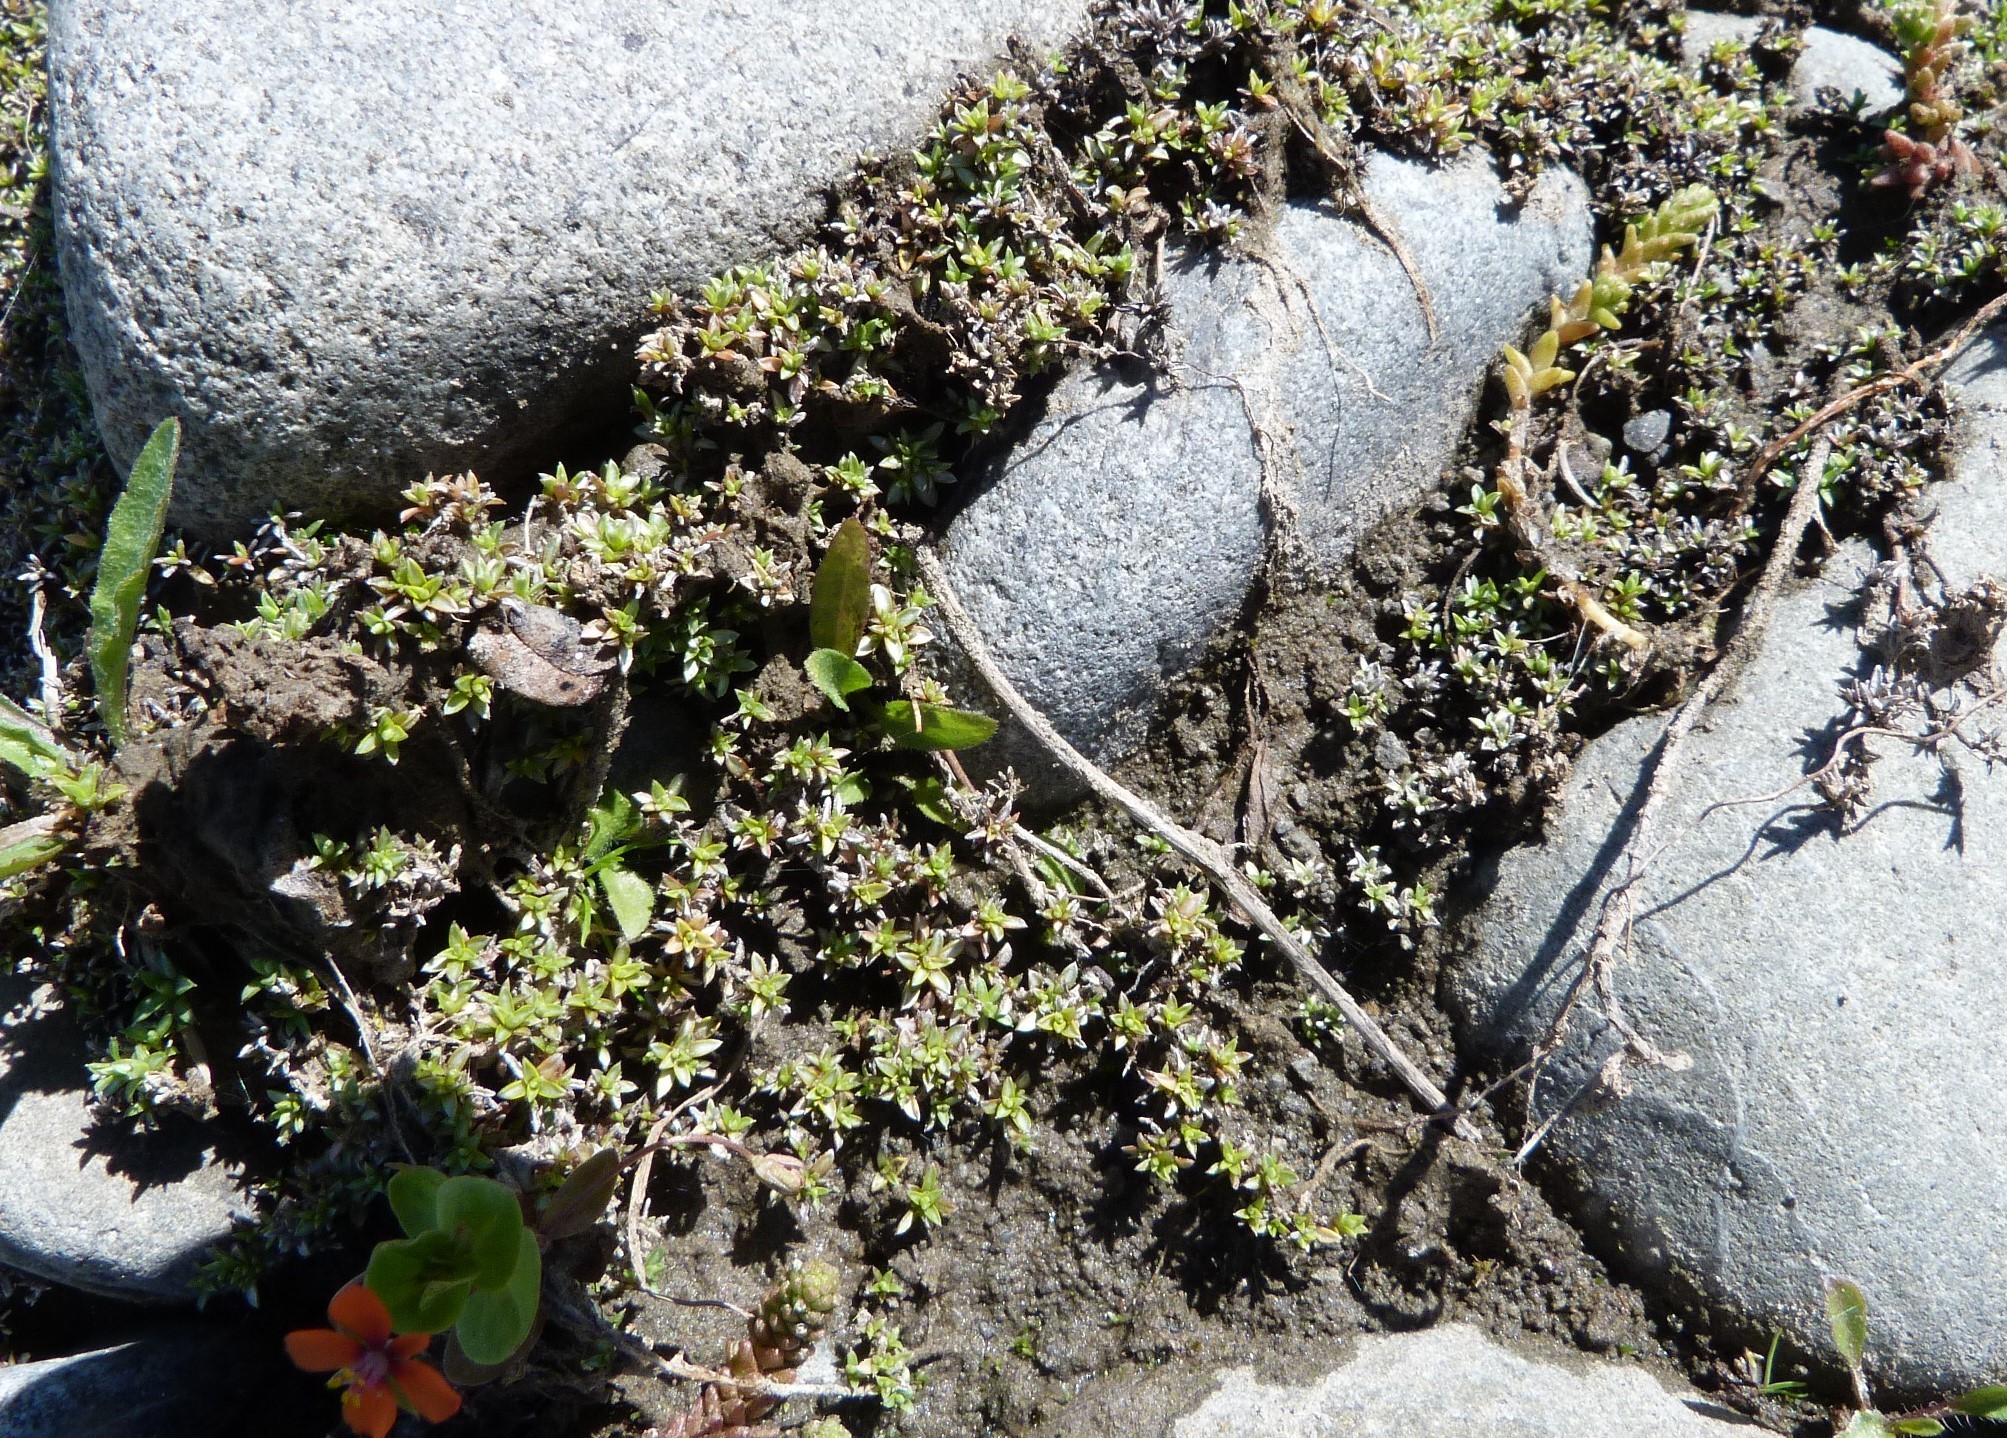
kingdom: Plantae
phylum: Tracheophyta
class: Magnoliopsida
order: Asterales
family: Asteraceae
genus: Raoulia
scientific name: Raoulia tenuicaulis
